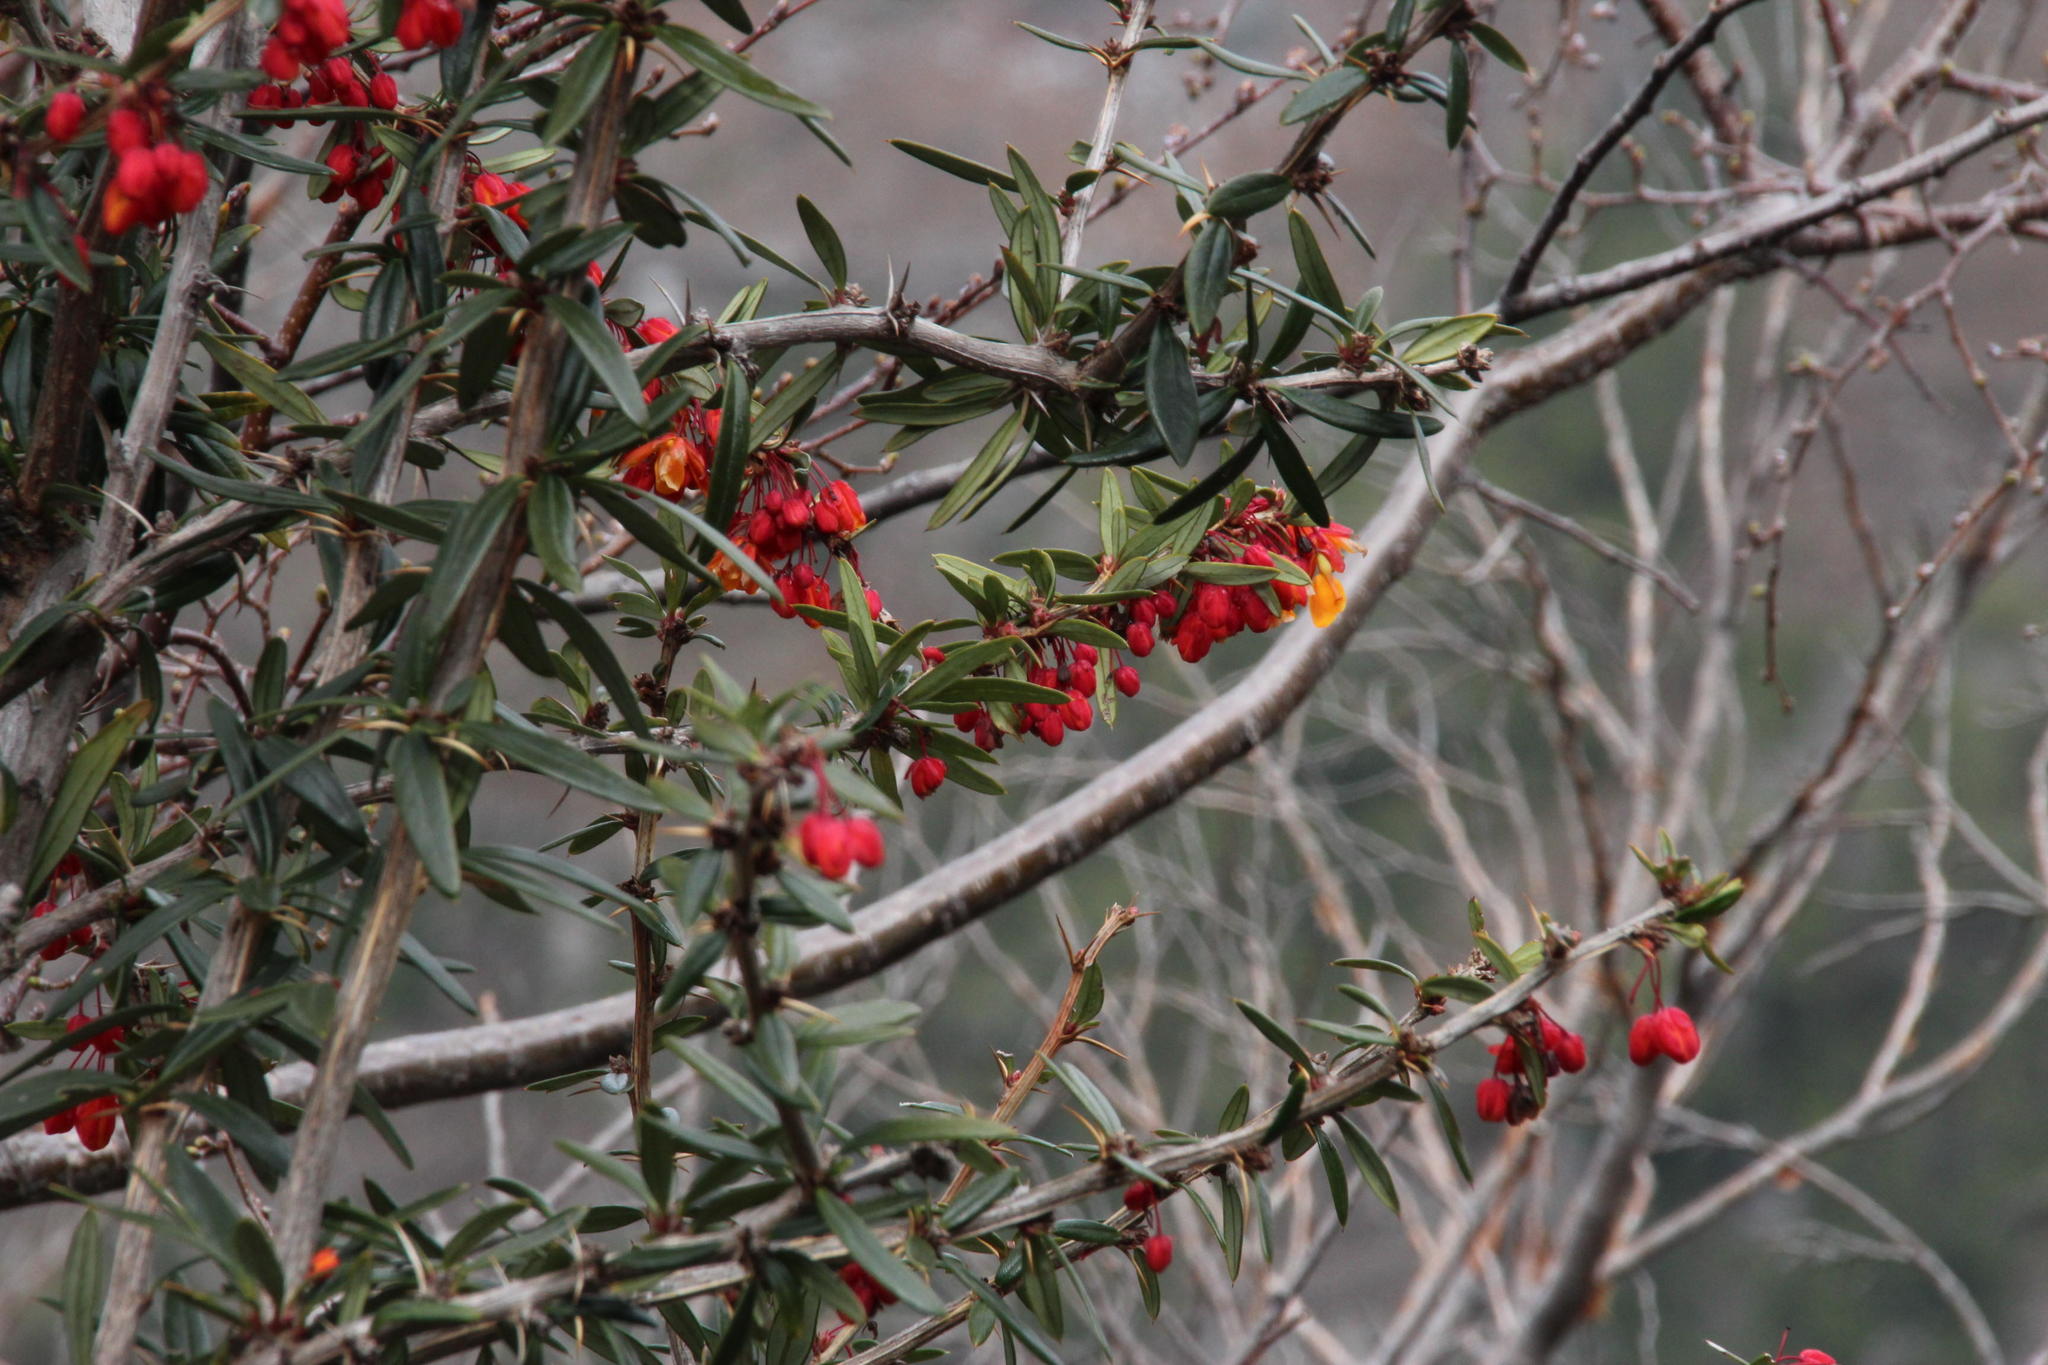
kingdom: Plantae
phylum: Tracheophyta
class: Magnoliopsida
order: Ranunculales
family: Berberidaceae
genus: Berberis
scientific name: Berberis trigona
